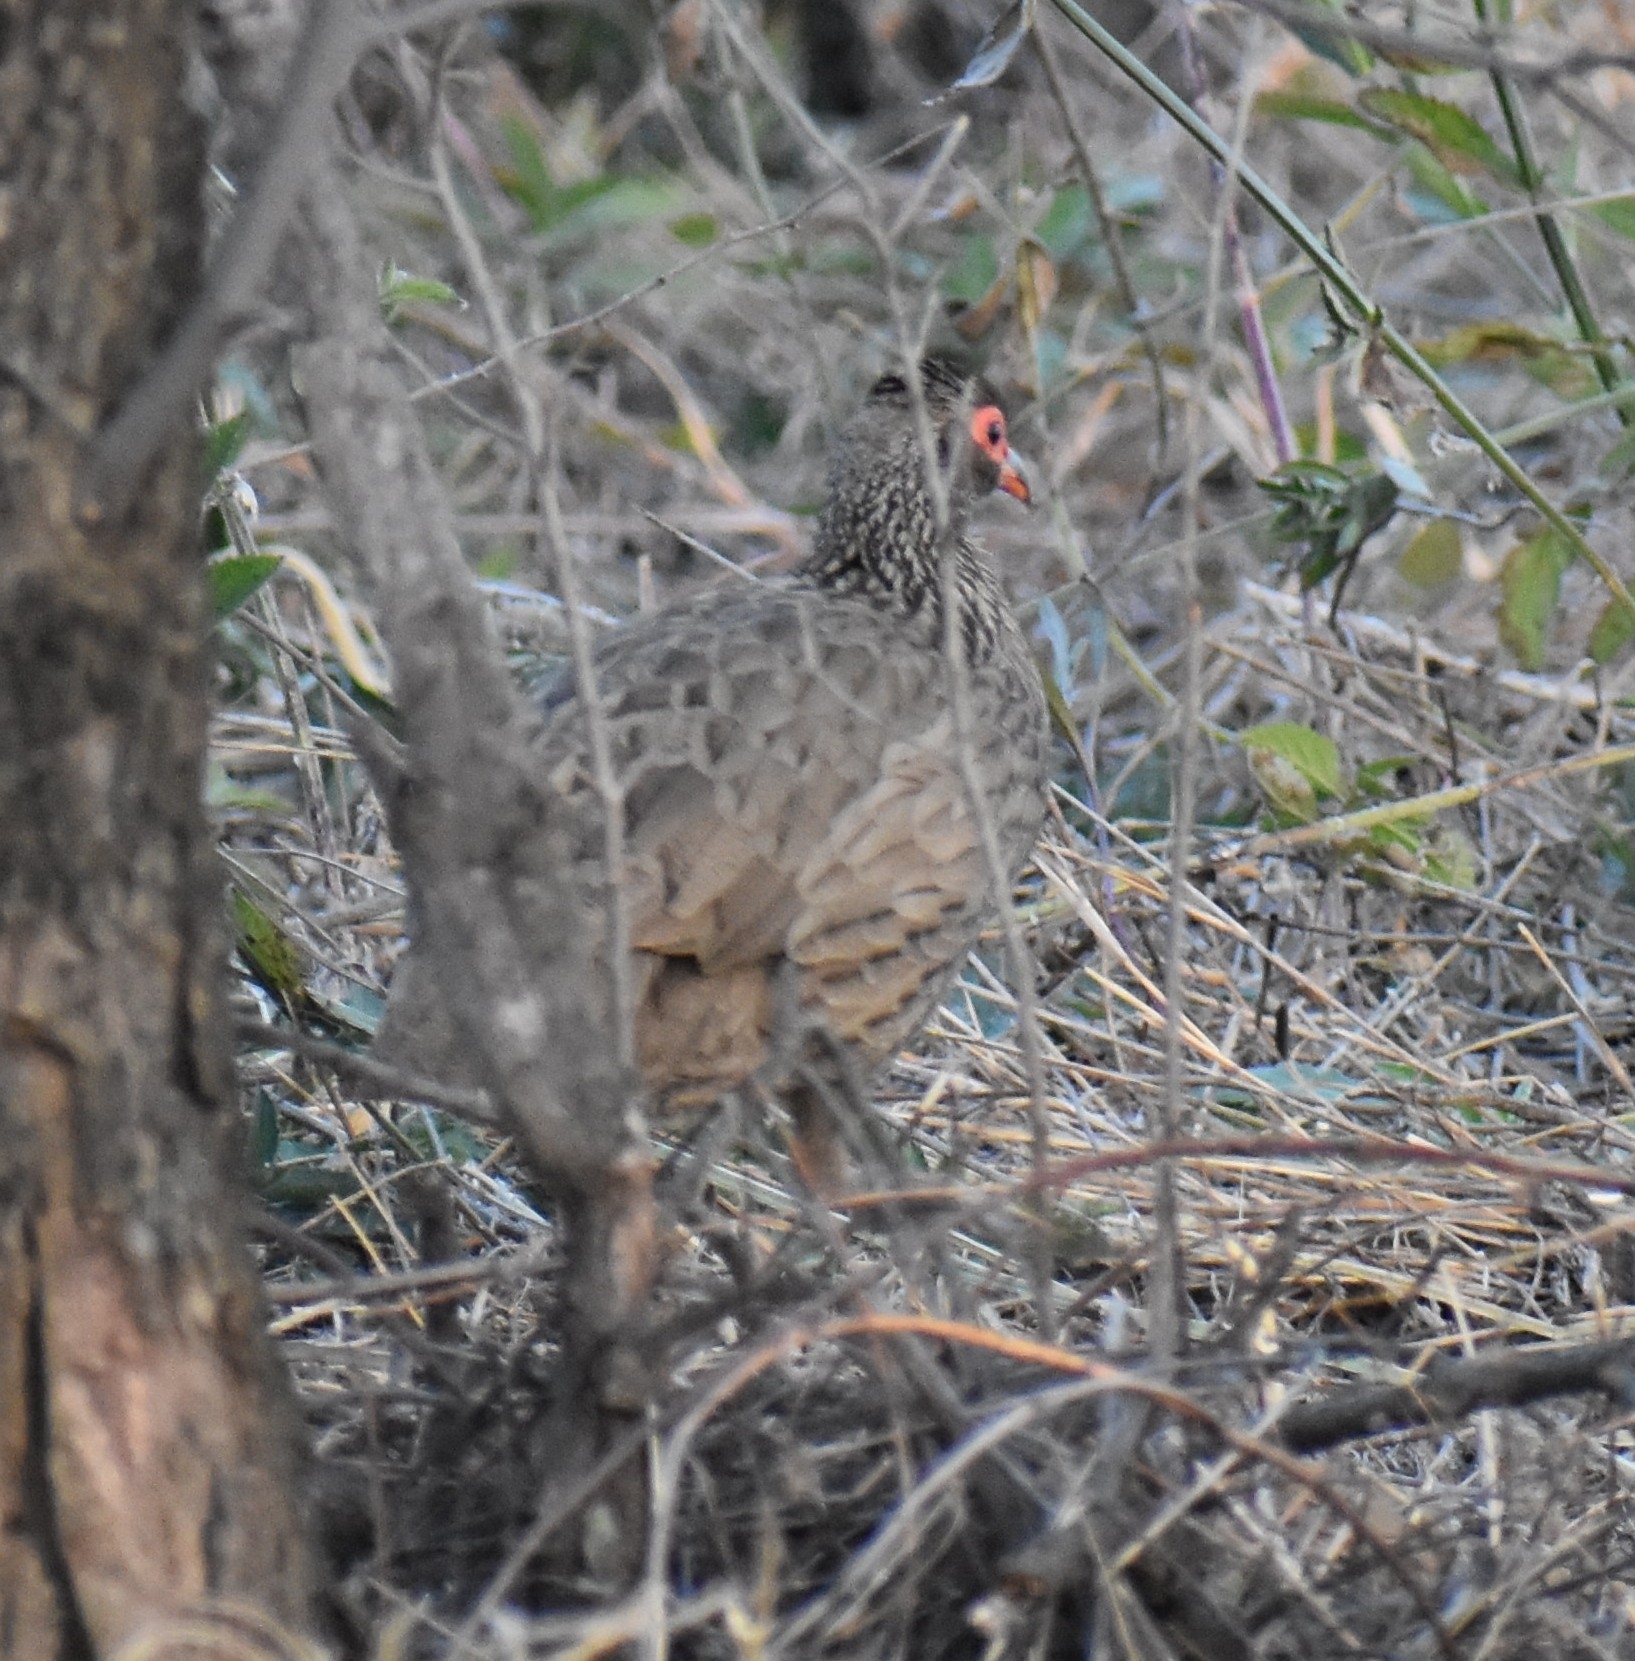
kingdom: Animalia
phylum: Chordata
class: Aves
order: Galliformes
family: Phasianidae
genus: Pternistis
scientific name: Pternistis swainsonii
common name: Swainson's spurfowl
